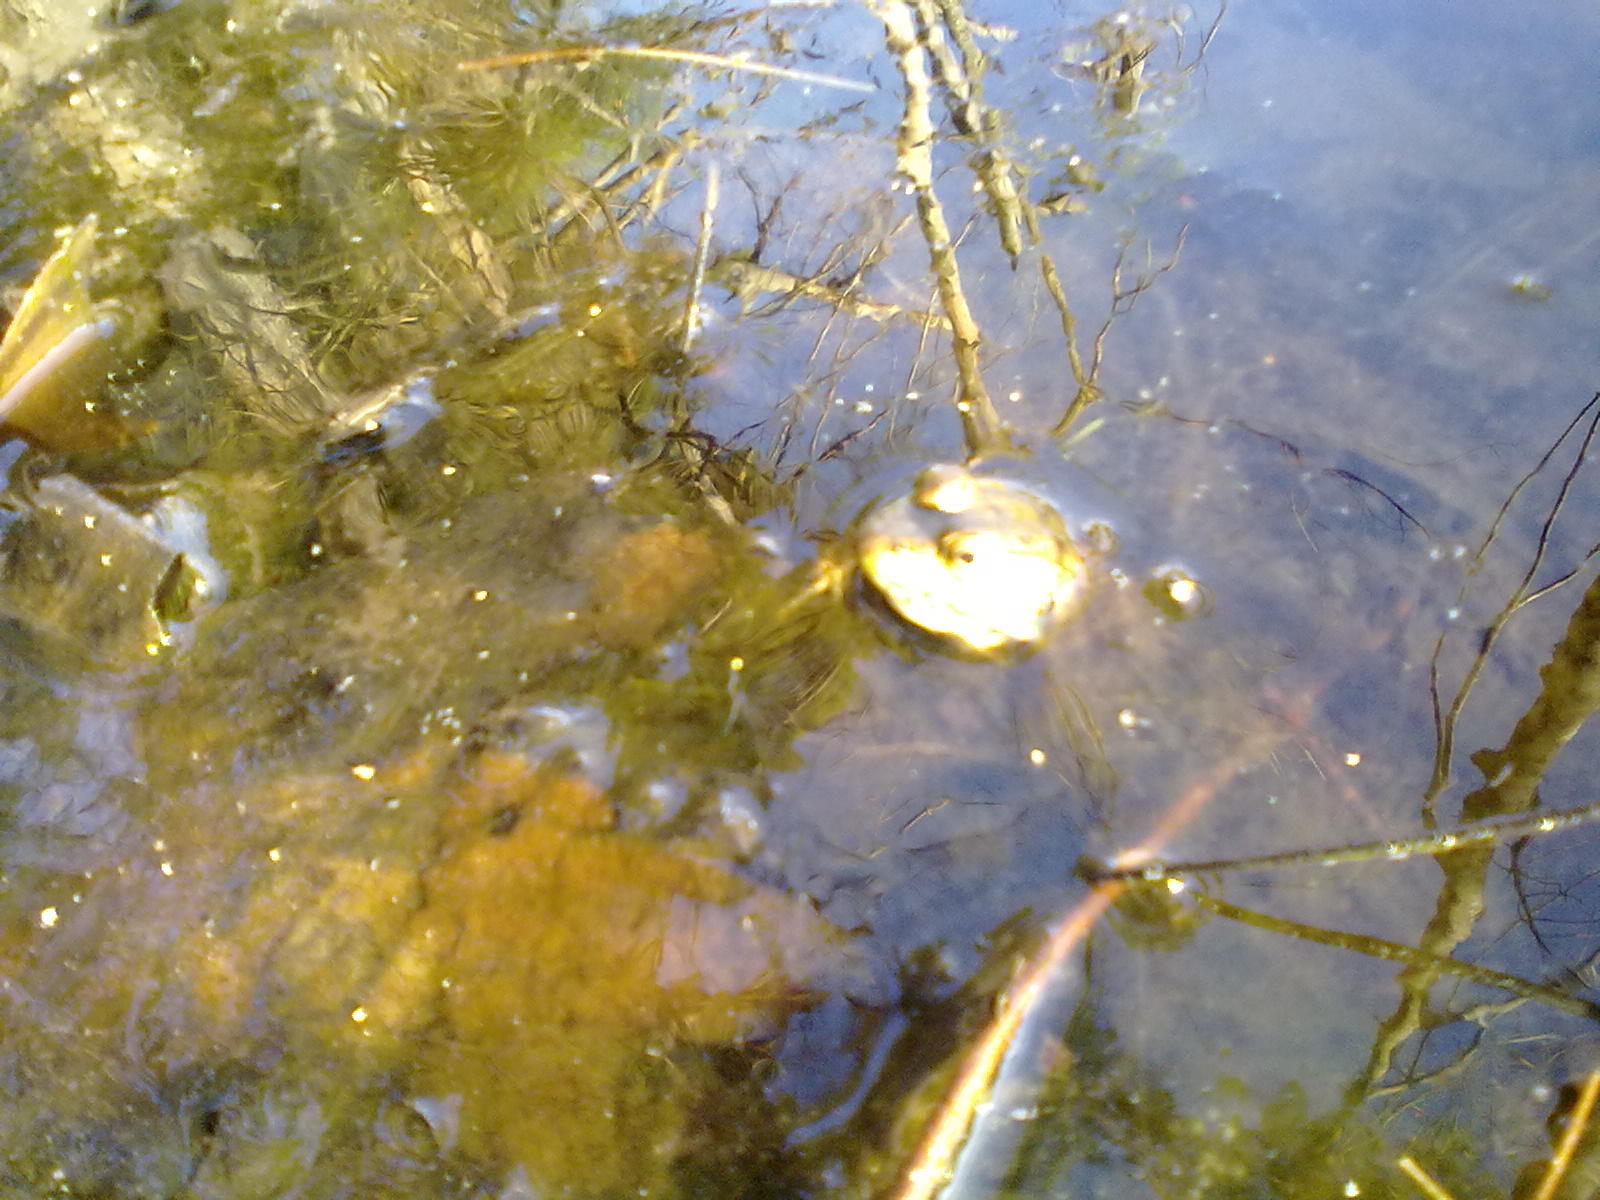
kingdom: Animalia
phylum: Chordata
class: Amphibia
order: Anura
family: Ranidae
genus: Lithobates
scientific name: Lithobates clamitans
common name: Green frog
